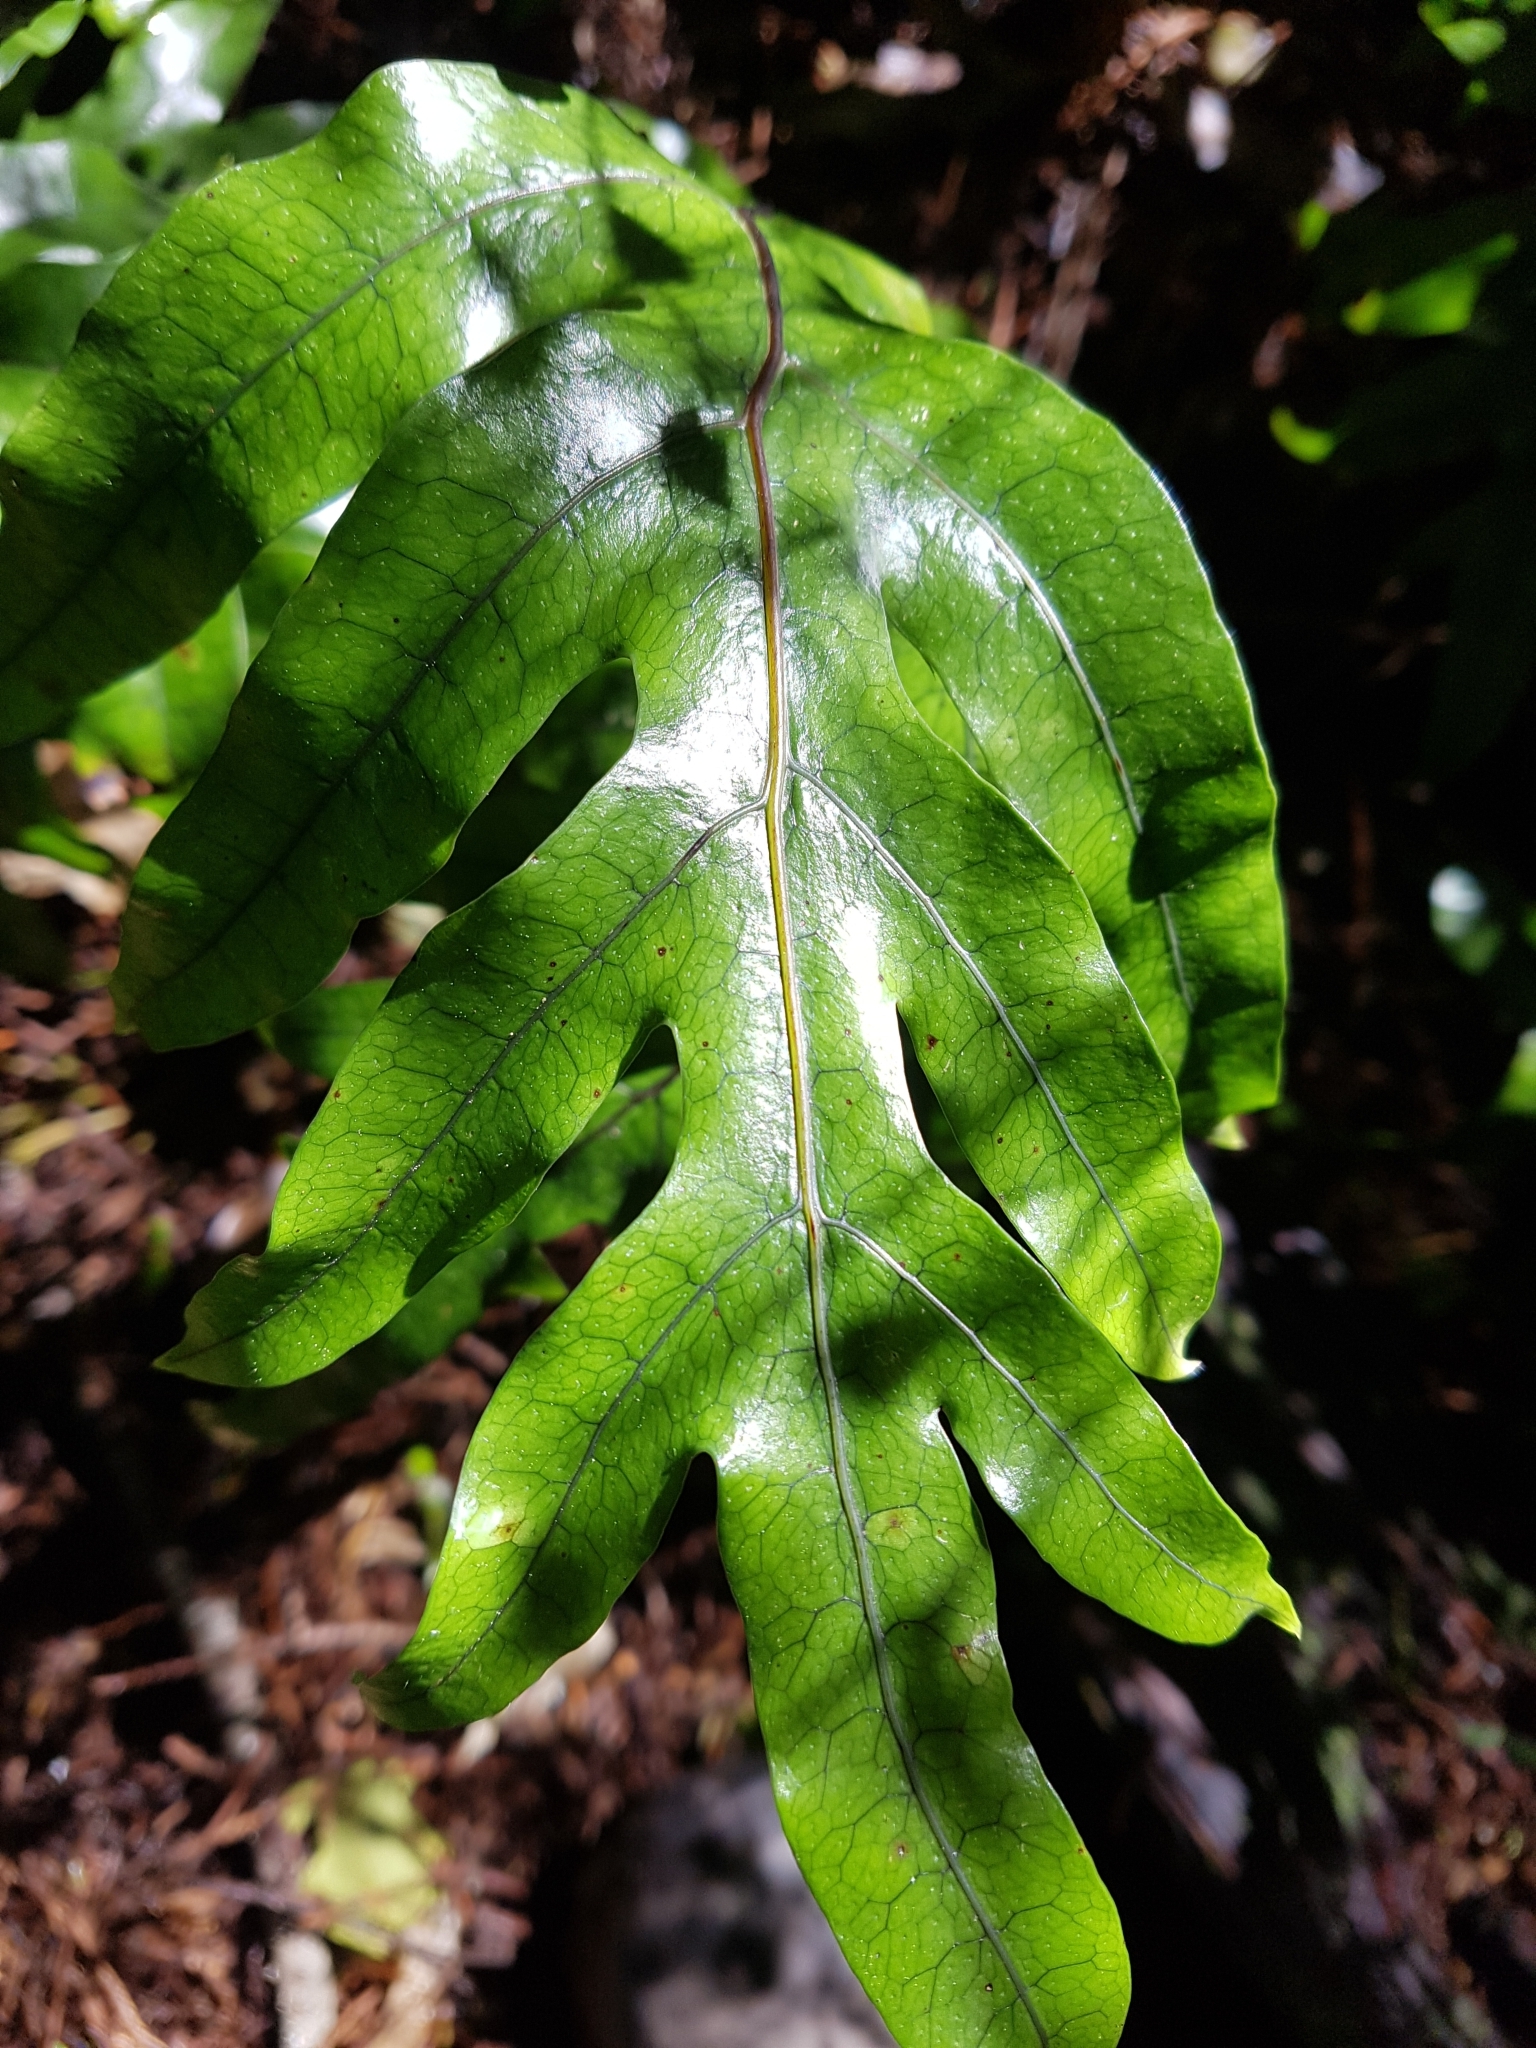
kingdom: Plantae
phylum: Tracheophyta
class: Polypodiopsida
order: Polypodiales
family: Polypodiaceae
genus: Lecanopteris
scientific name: Lecanopteris pustulata
